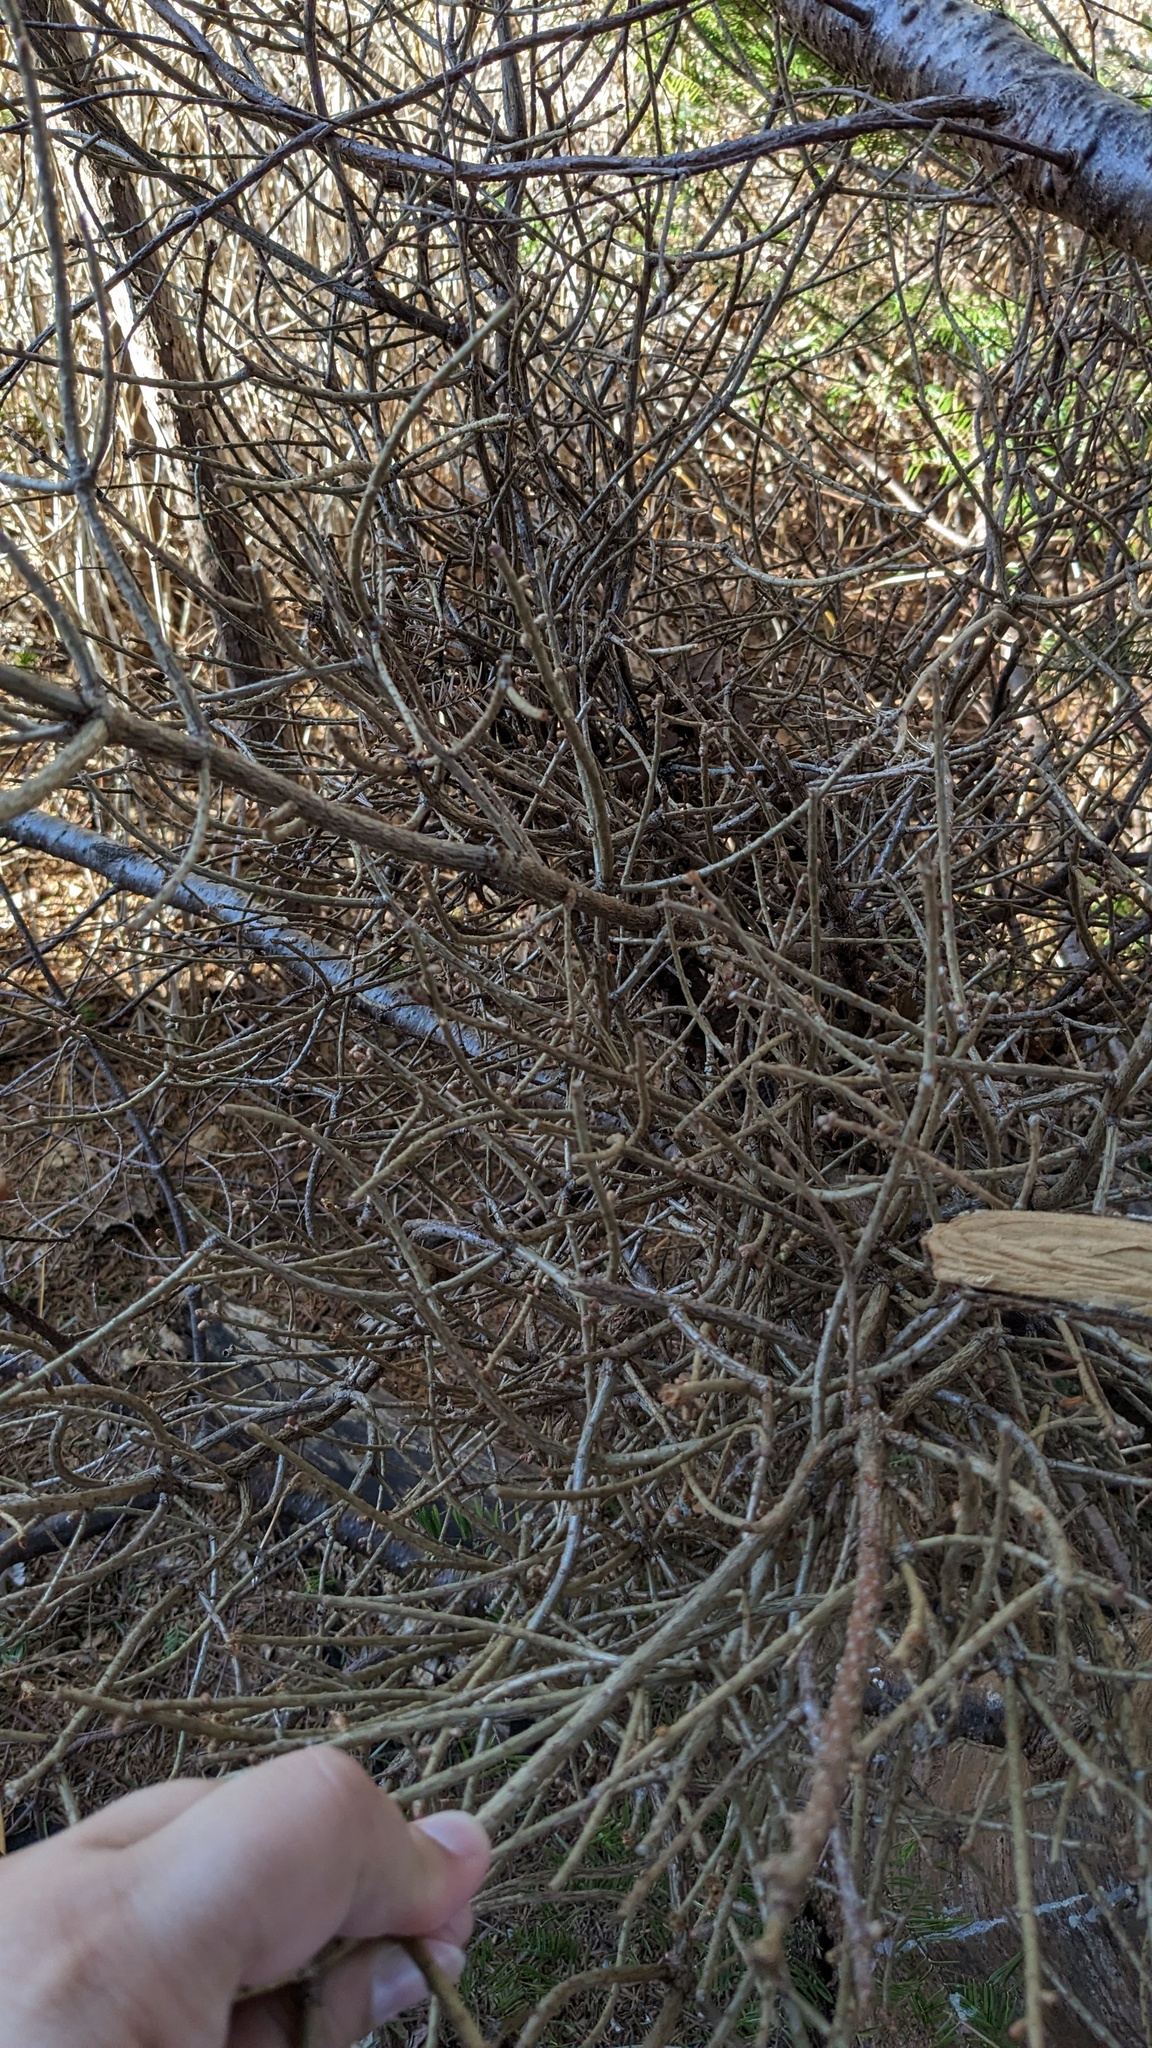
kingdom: Fungi
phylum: Basidiomycota
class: Pucciniomycetes
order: Pucciniales
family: Pucciniastraceae
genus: Melampsorella
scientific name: Melampsorella elatina
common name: Fir broom rust
